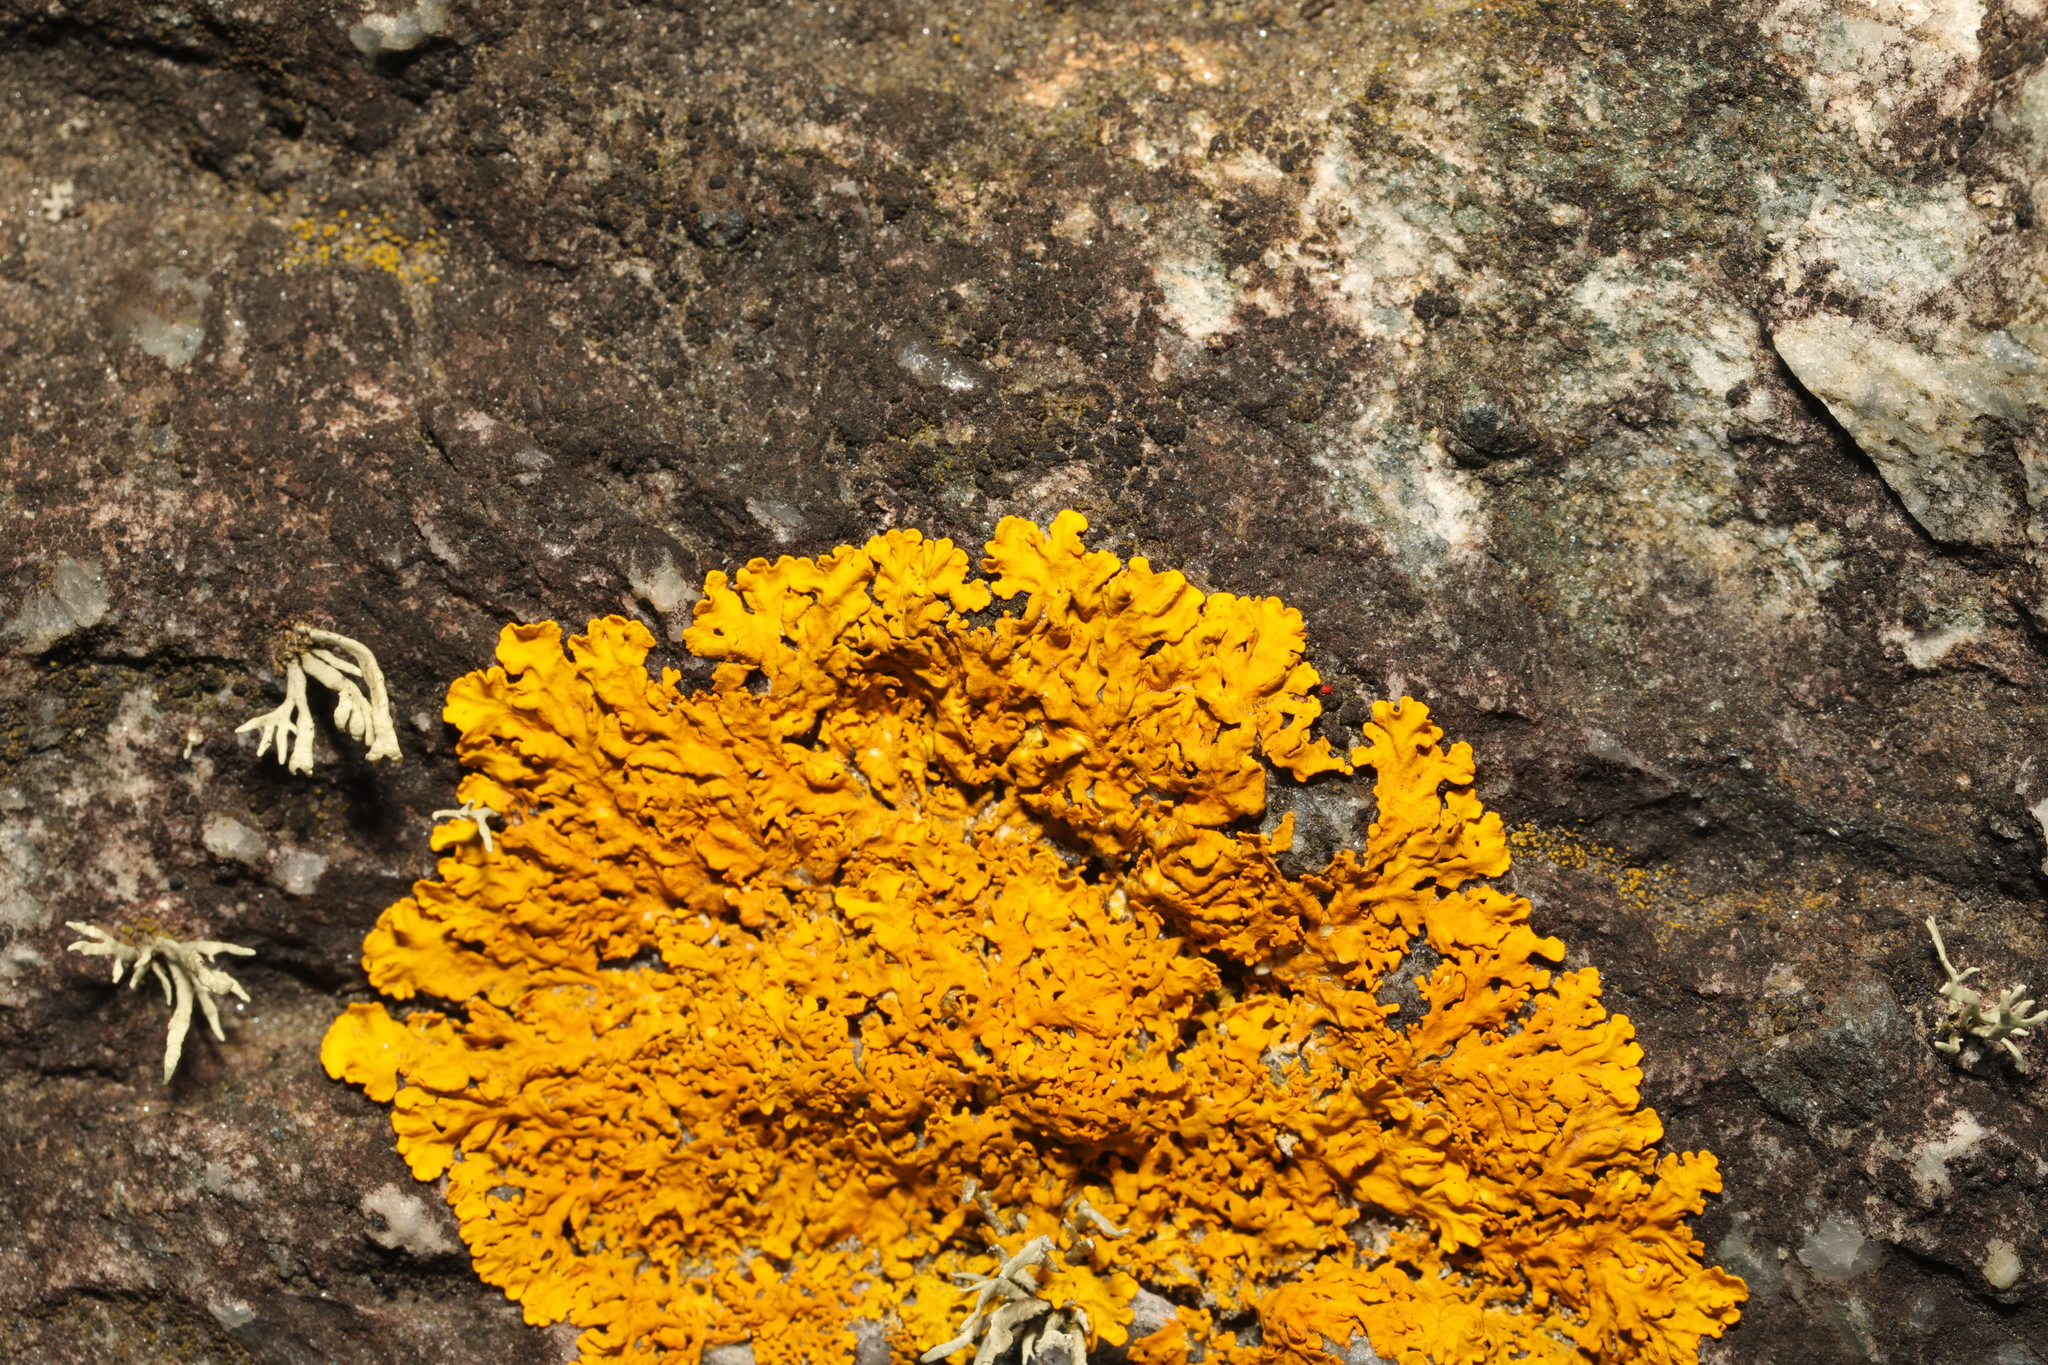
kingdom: Fungi
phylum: Ascomycota
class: Lecanoromycetes
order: Teloschistales
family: Teloschistaceae
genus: Xanthoria
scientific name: Xanthoria aureola
